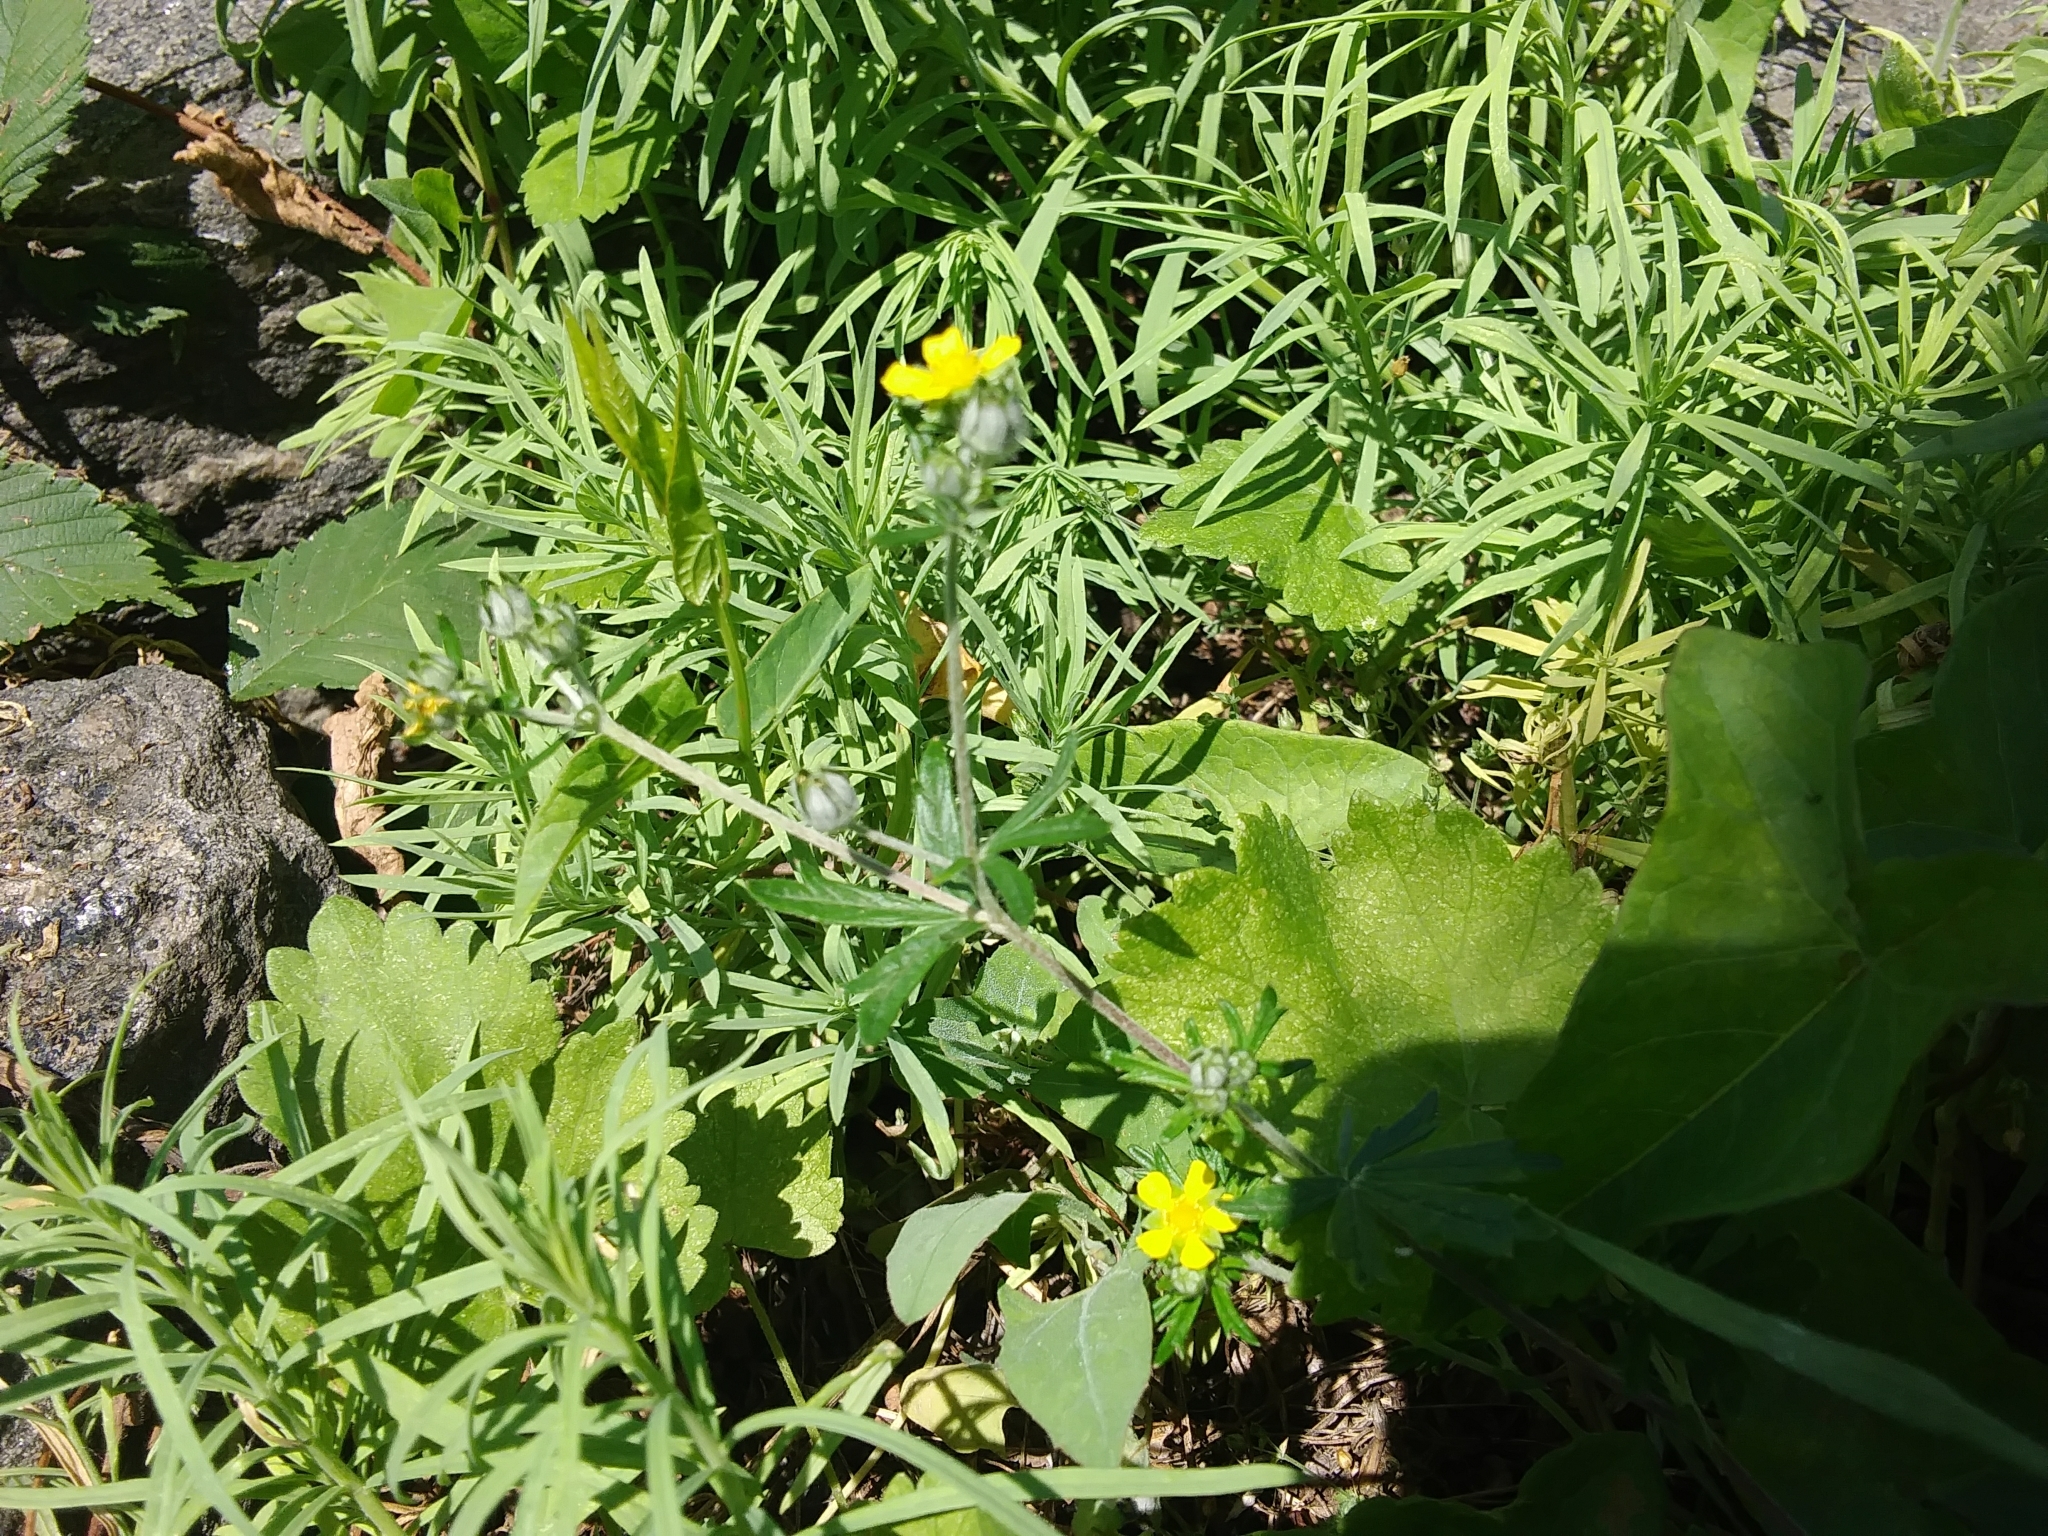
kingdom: Plantae
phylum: Tracheophyta
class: Magnoliopsida
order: Rosales
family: Rosaceae
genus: Potentilla
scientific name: Potentilla argentea
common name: Hoary cinquefoil
